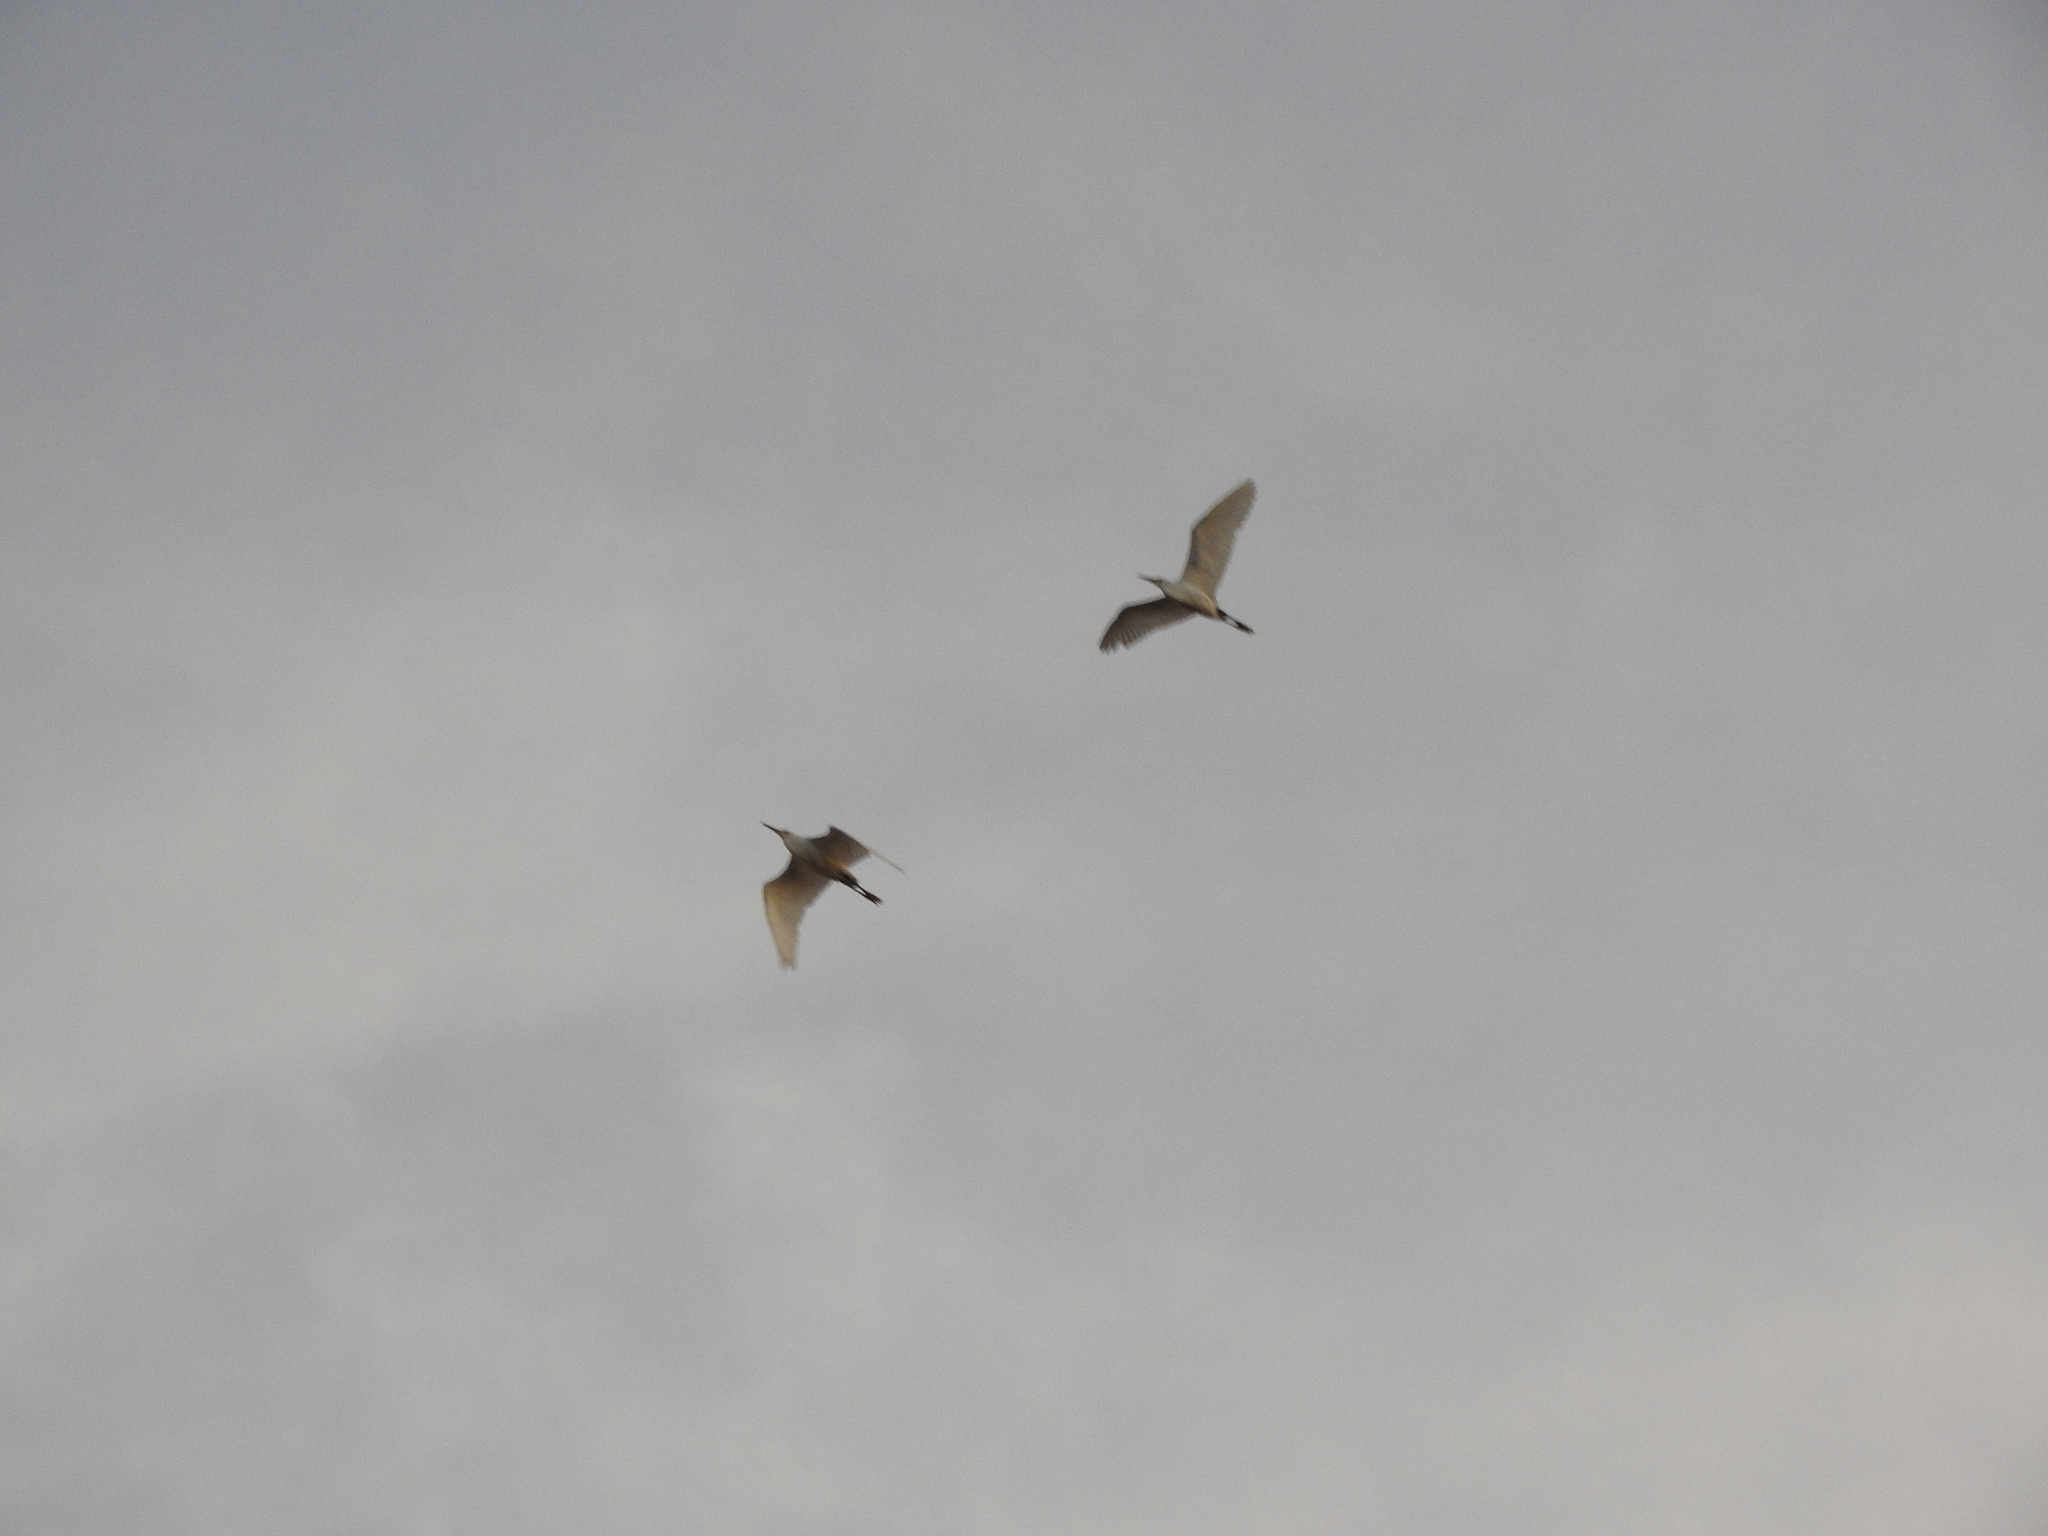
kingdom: Animalia
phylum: Chordata
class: Aves
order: Pelecaniformes
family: Ardeidae
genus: Egretta
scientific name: Egretta thula
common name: Snowy egret
